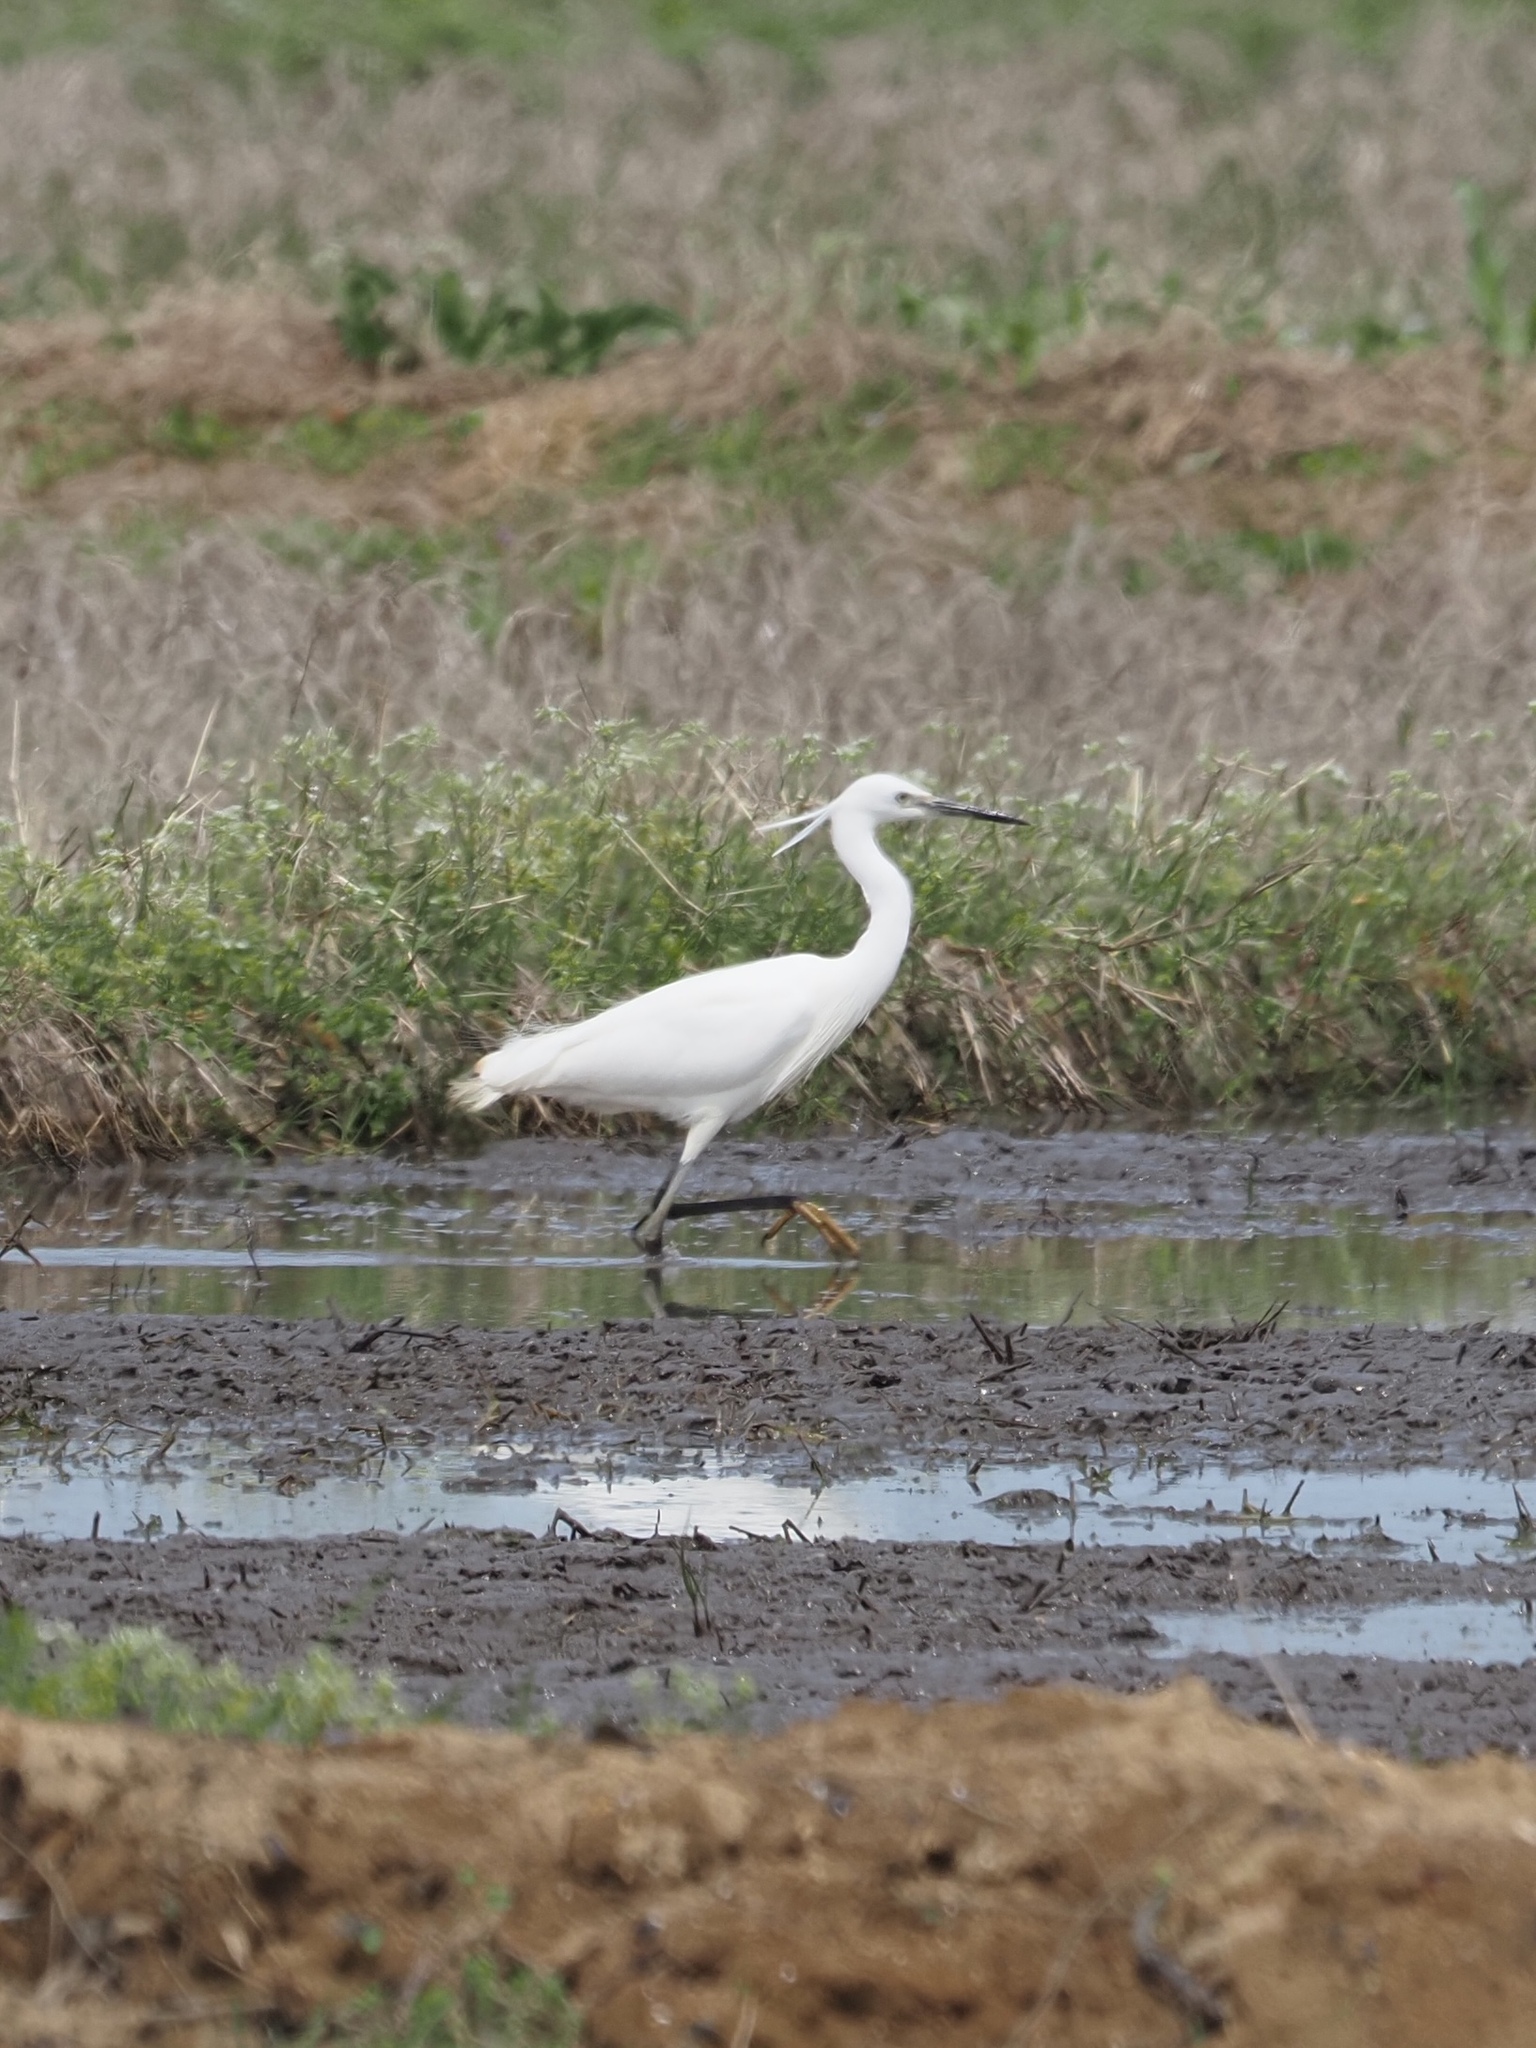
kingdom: Animalia
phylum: Chordata
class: Aves
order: Pelecaniformes
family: Ardeidae
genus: Egretta
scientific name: Egretta garzetta
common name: Little egret
